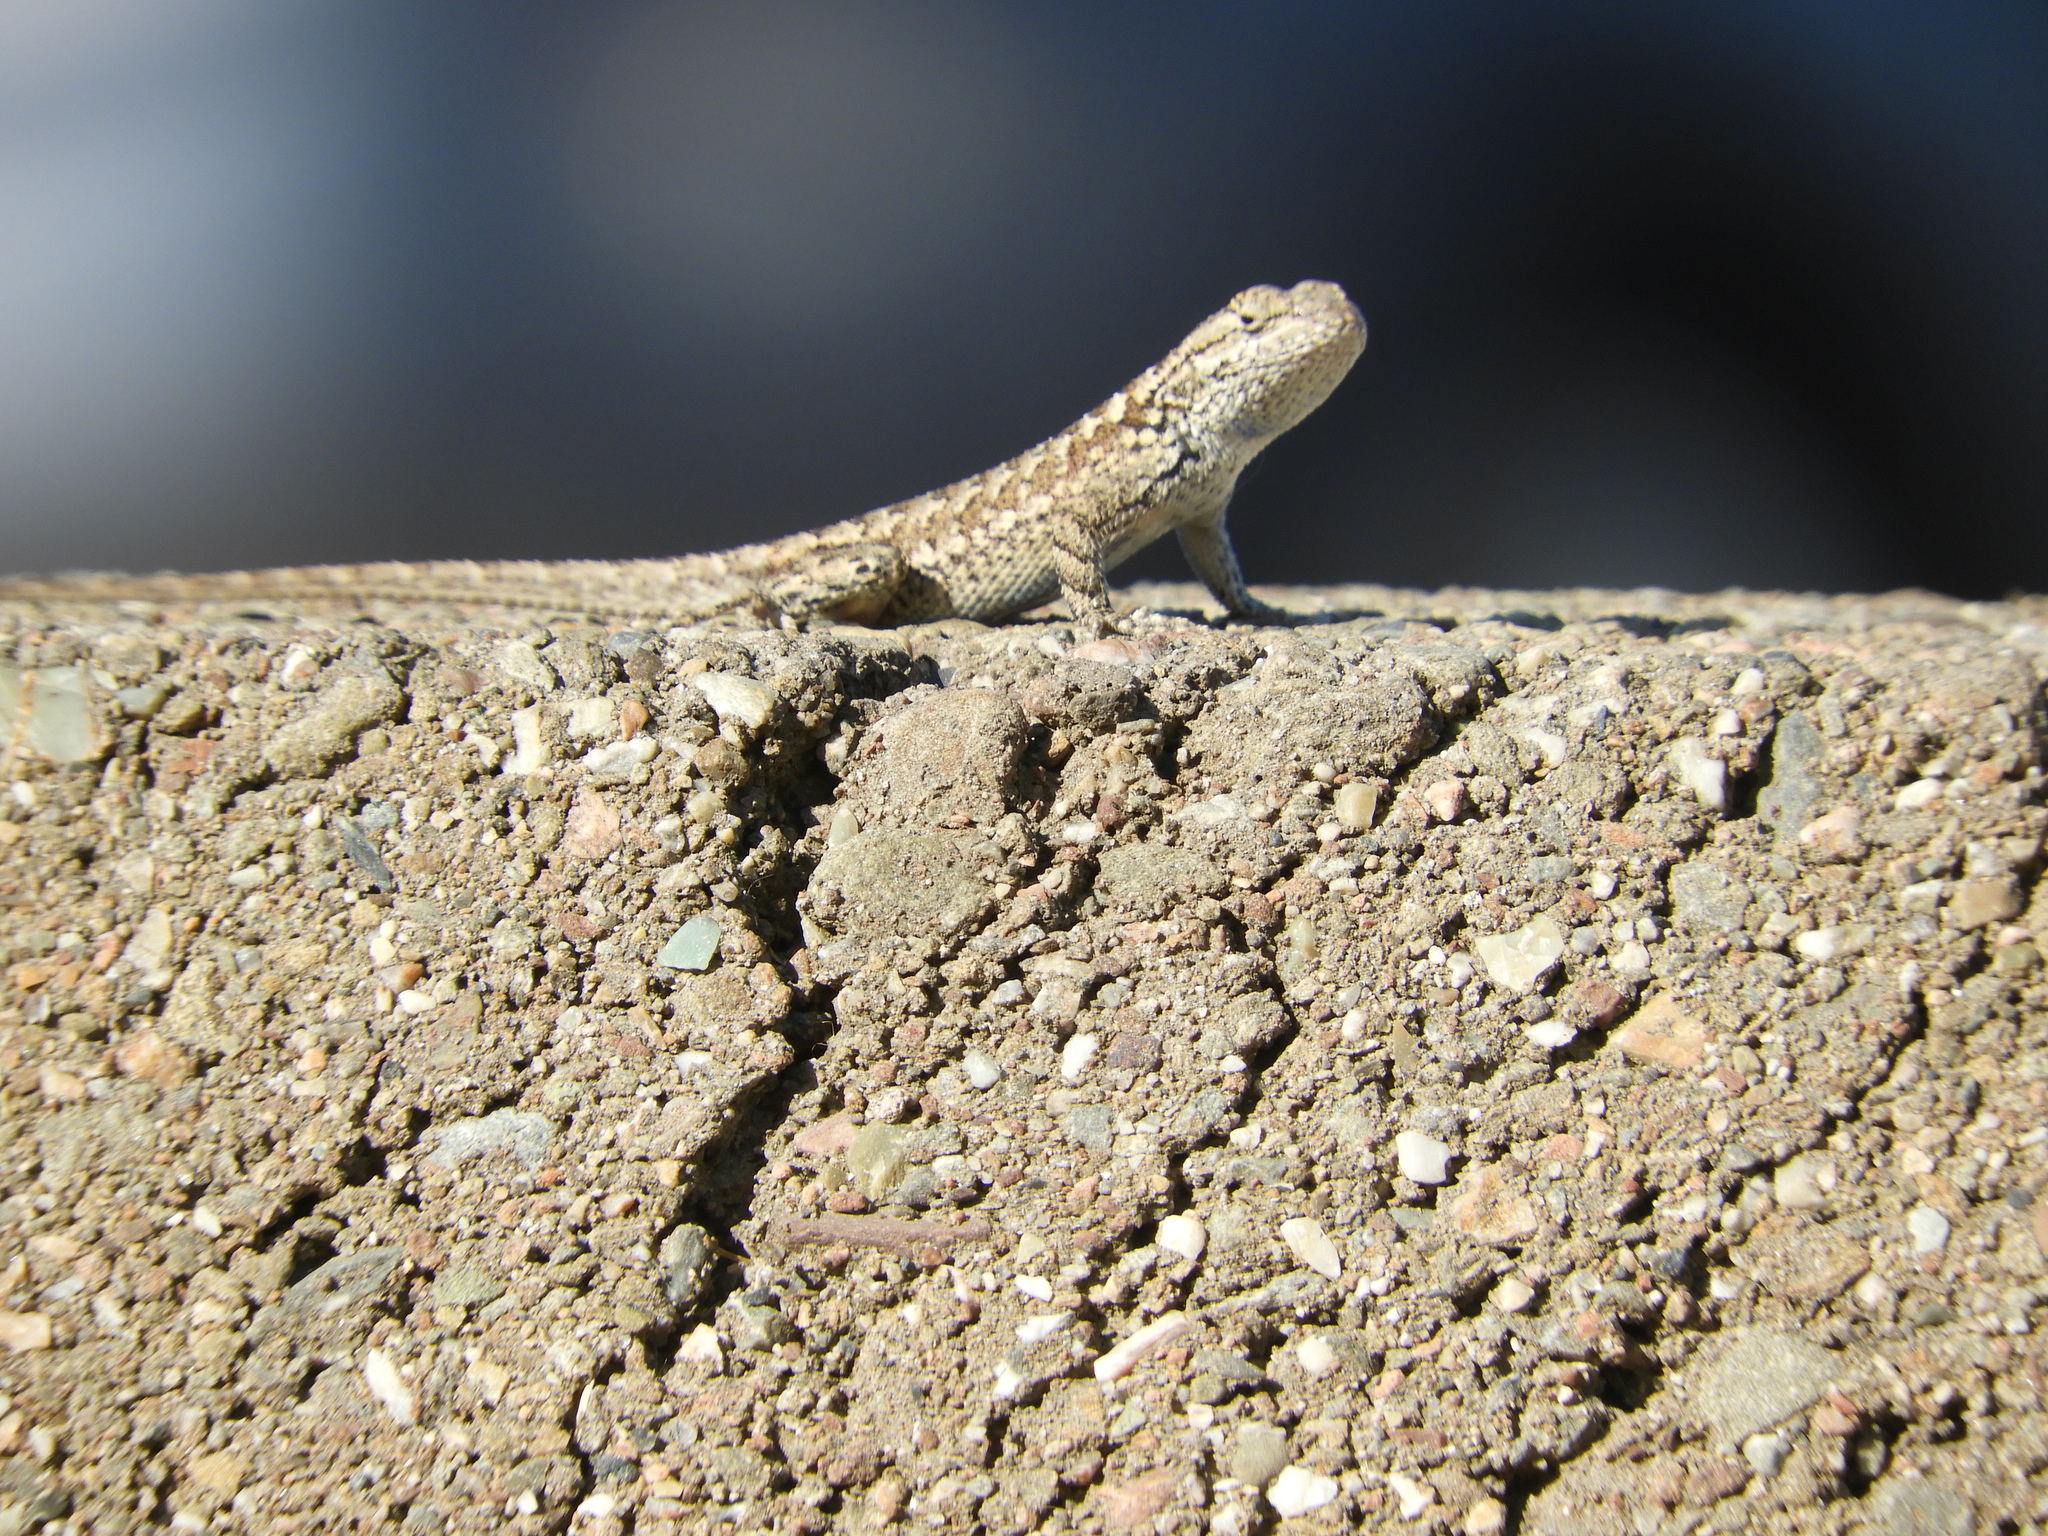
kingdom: Animalia
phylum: Chordata
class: Squamata
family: Phrynosomatidae
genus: Sceloporus
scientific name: Sceloporus occidentalis
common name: Western fence lizard
